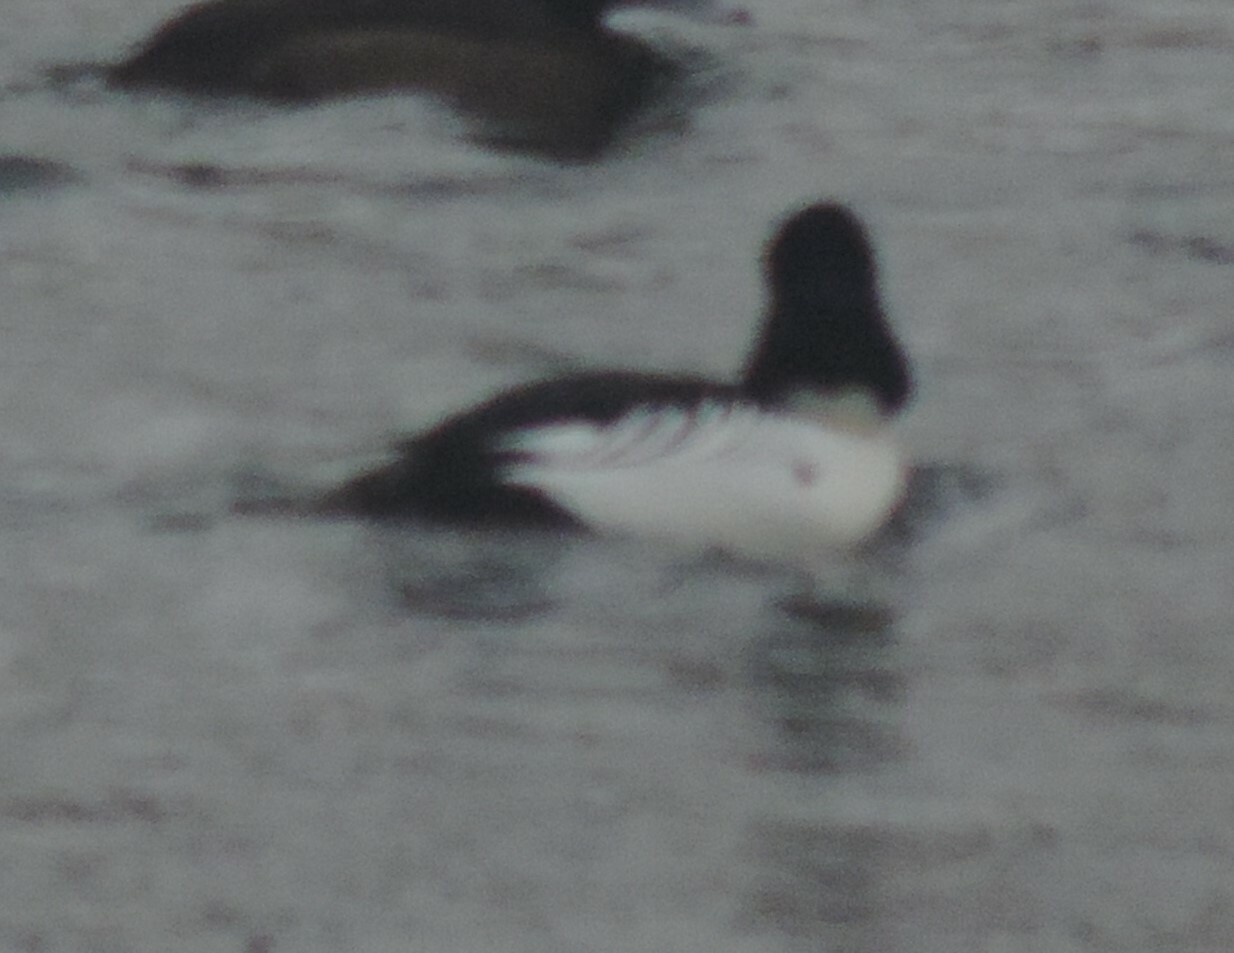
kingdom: Animalia
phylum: Chordata
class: Aves
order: Anseriformes
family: Anatidae
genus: Bucephala
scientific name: Bucephala clangula
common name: Common goldeneye
